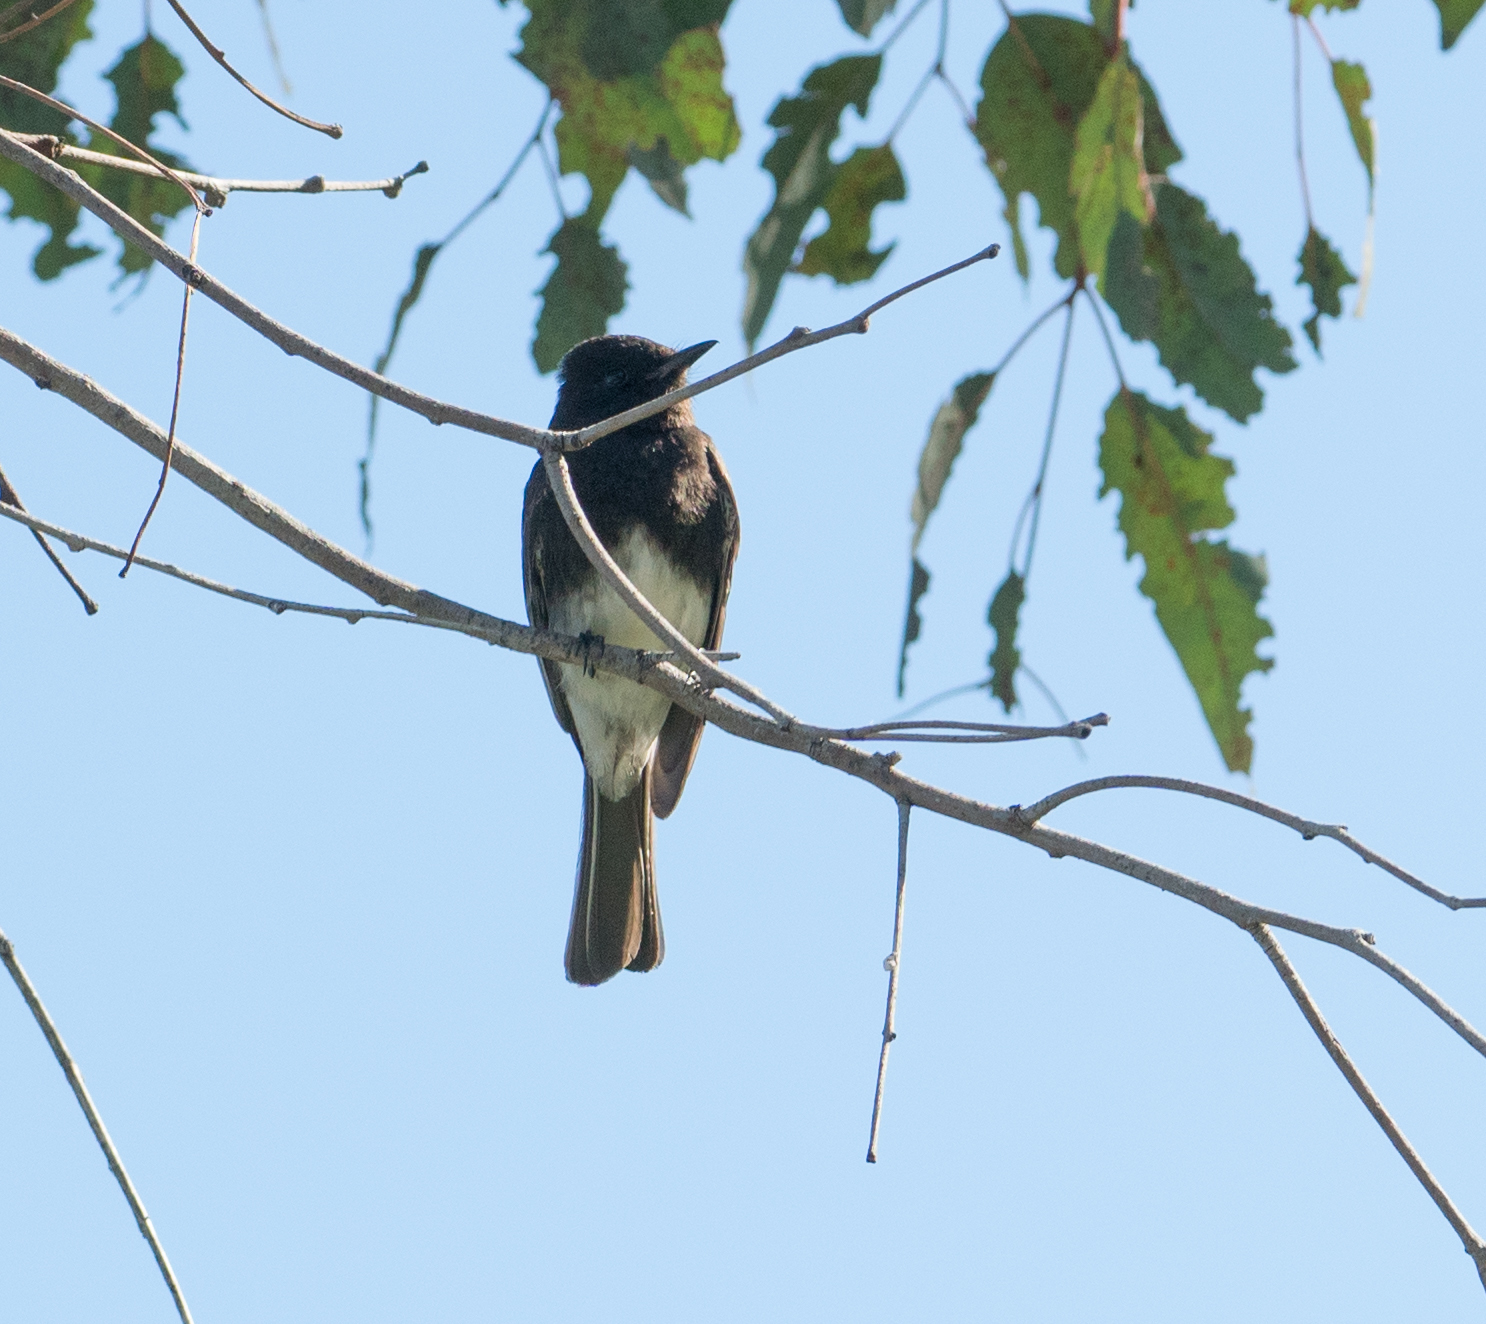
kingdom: Animalia
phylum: Chordata
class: Aves
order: Passeriformes
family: Tyrannidae
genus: Sayornis
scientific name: Sayornis nigricans
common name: Black phoebe
